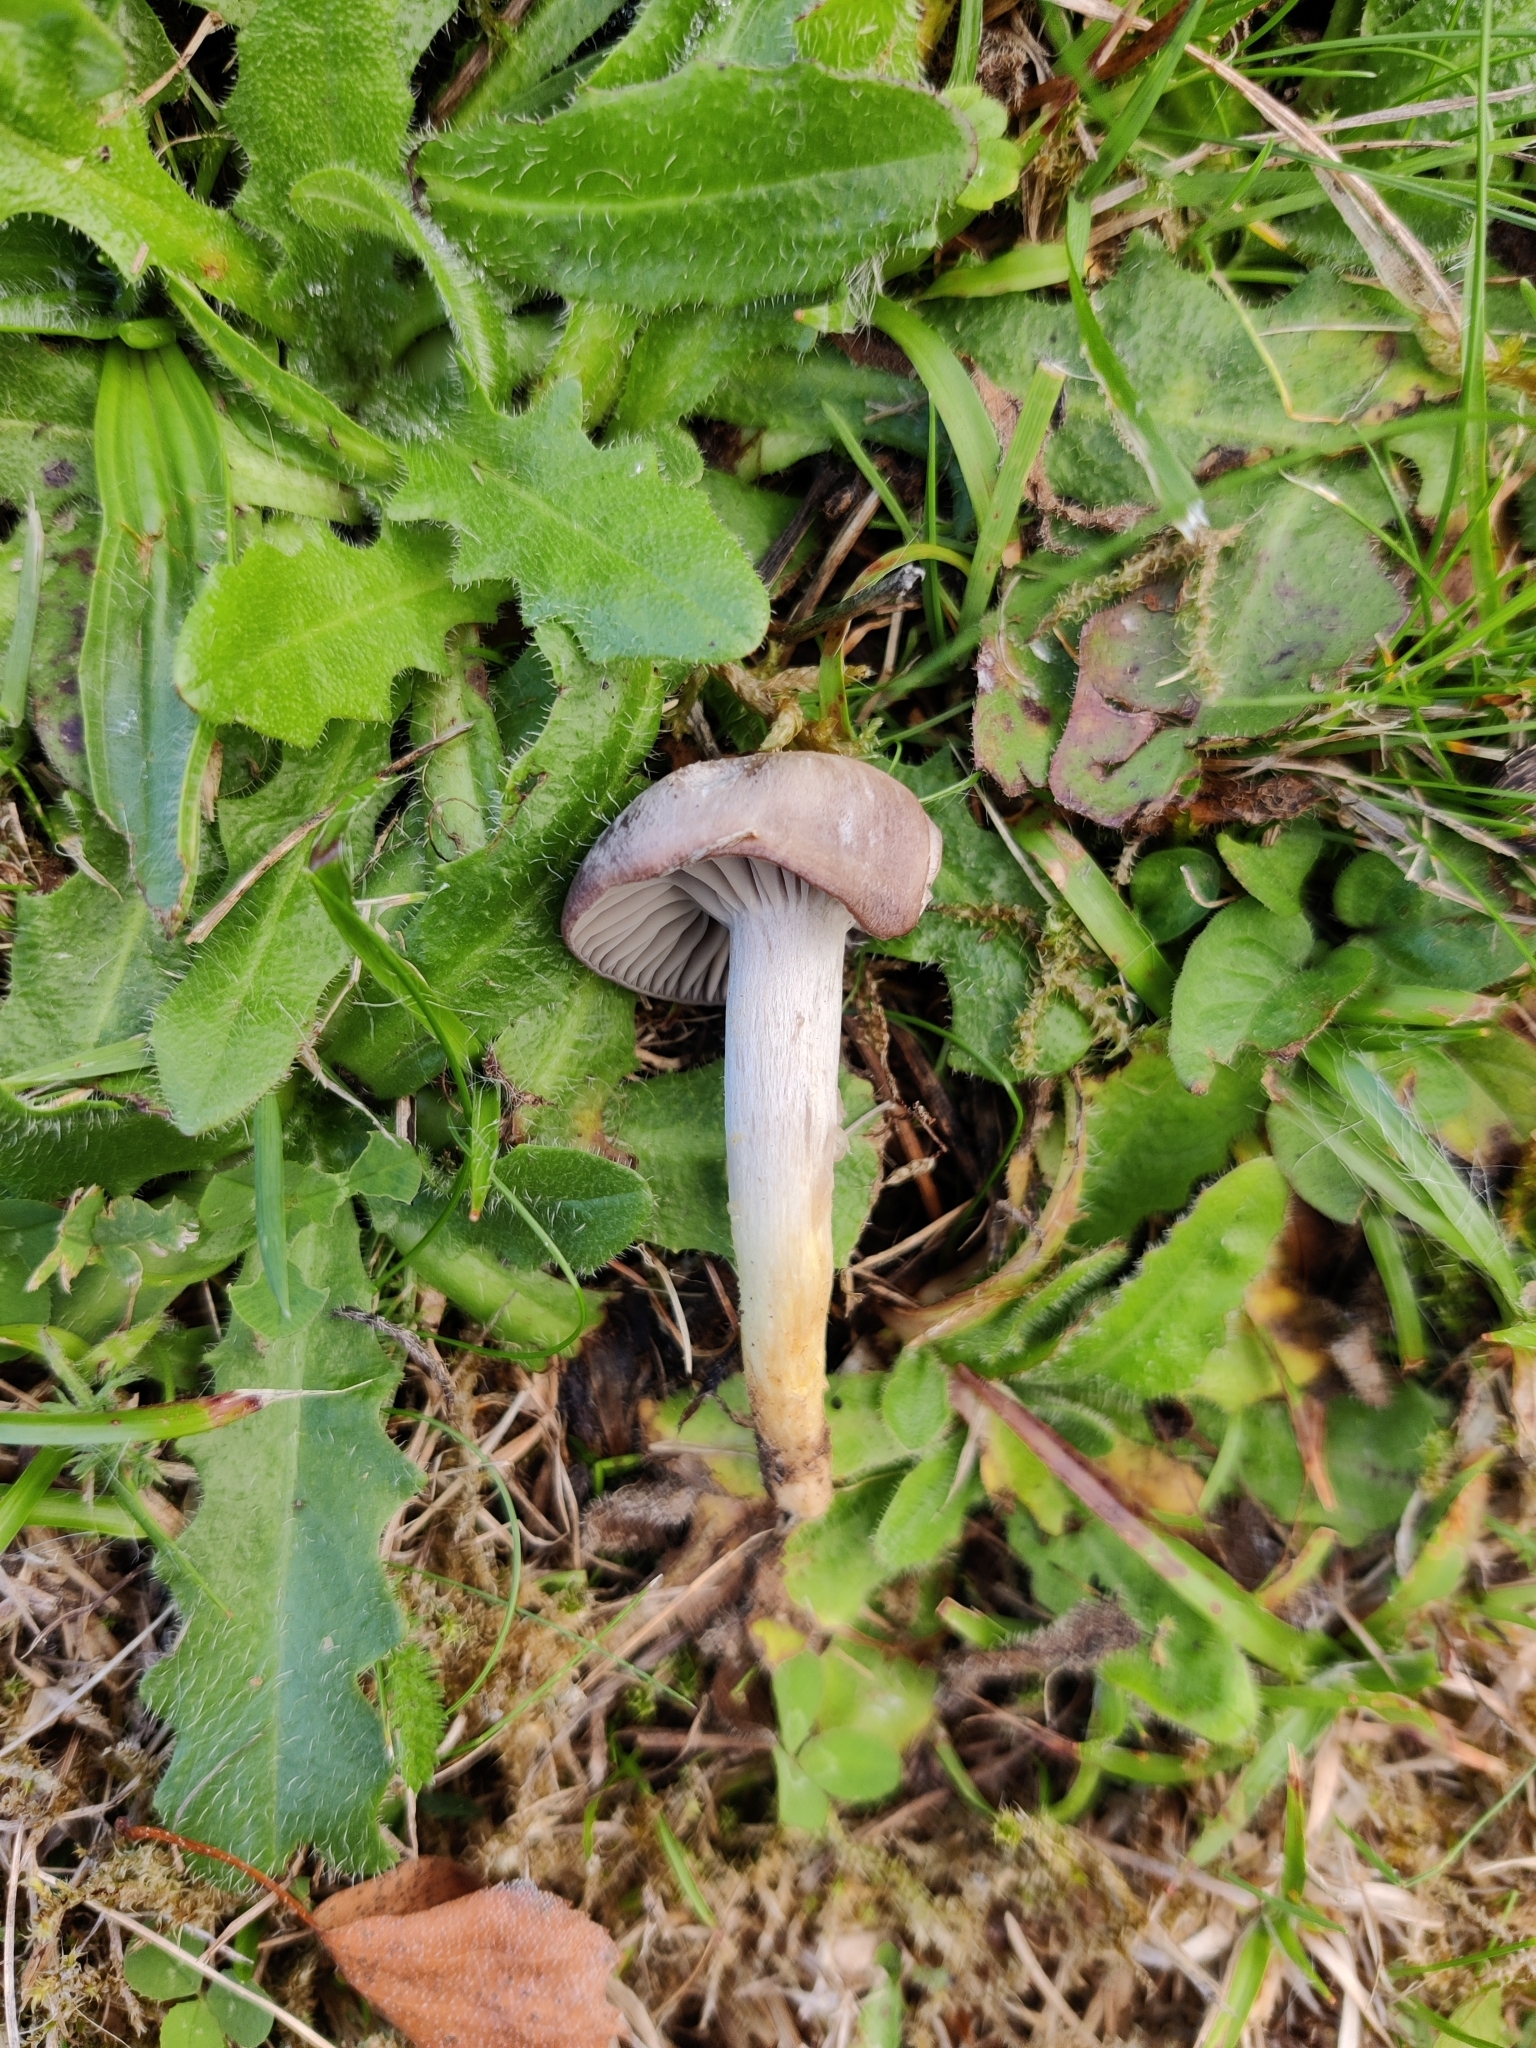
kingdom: Fungi
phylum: Basidiomycota
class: Agaricomycetes
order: Agaricales
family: Hygrophoraceae
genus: Cuphophyllus
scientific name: Cuphophyllus flavipes
